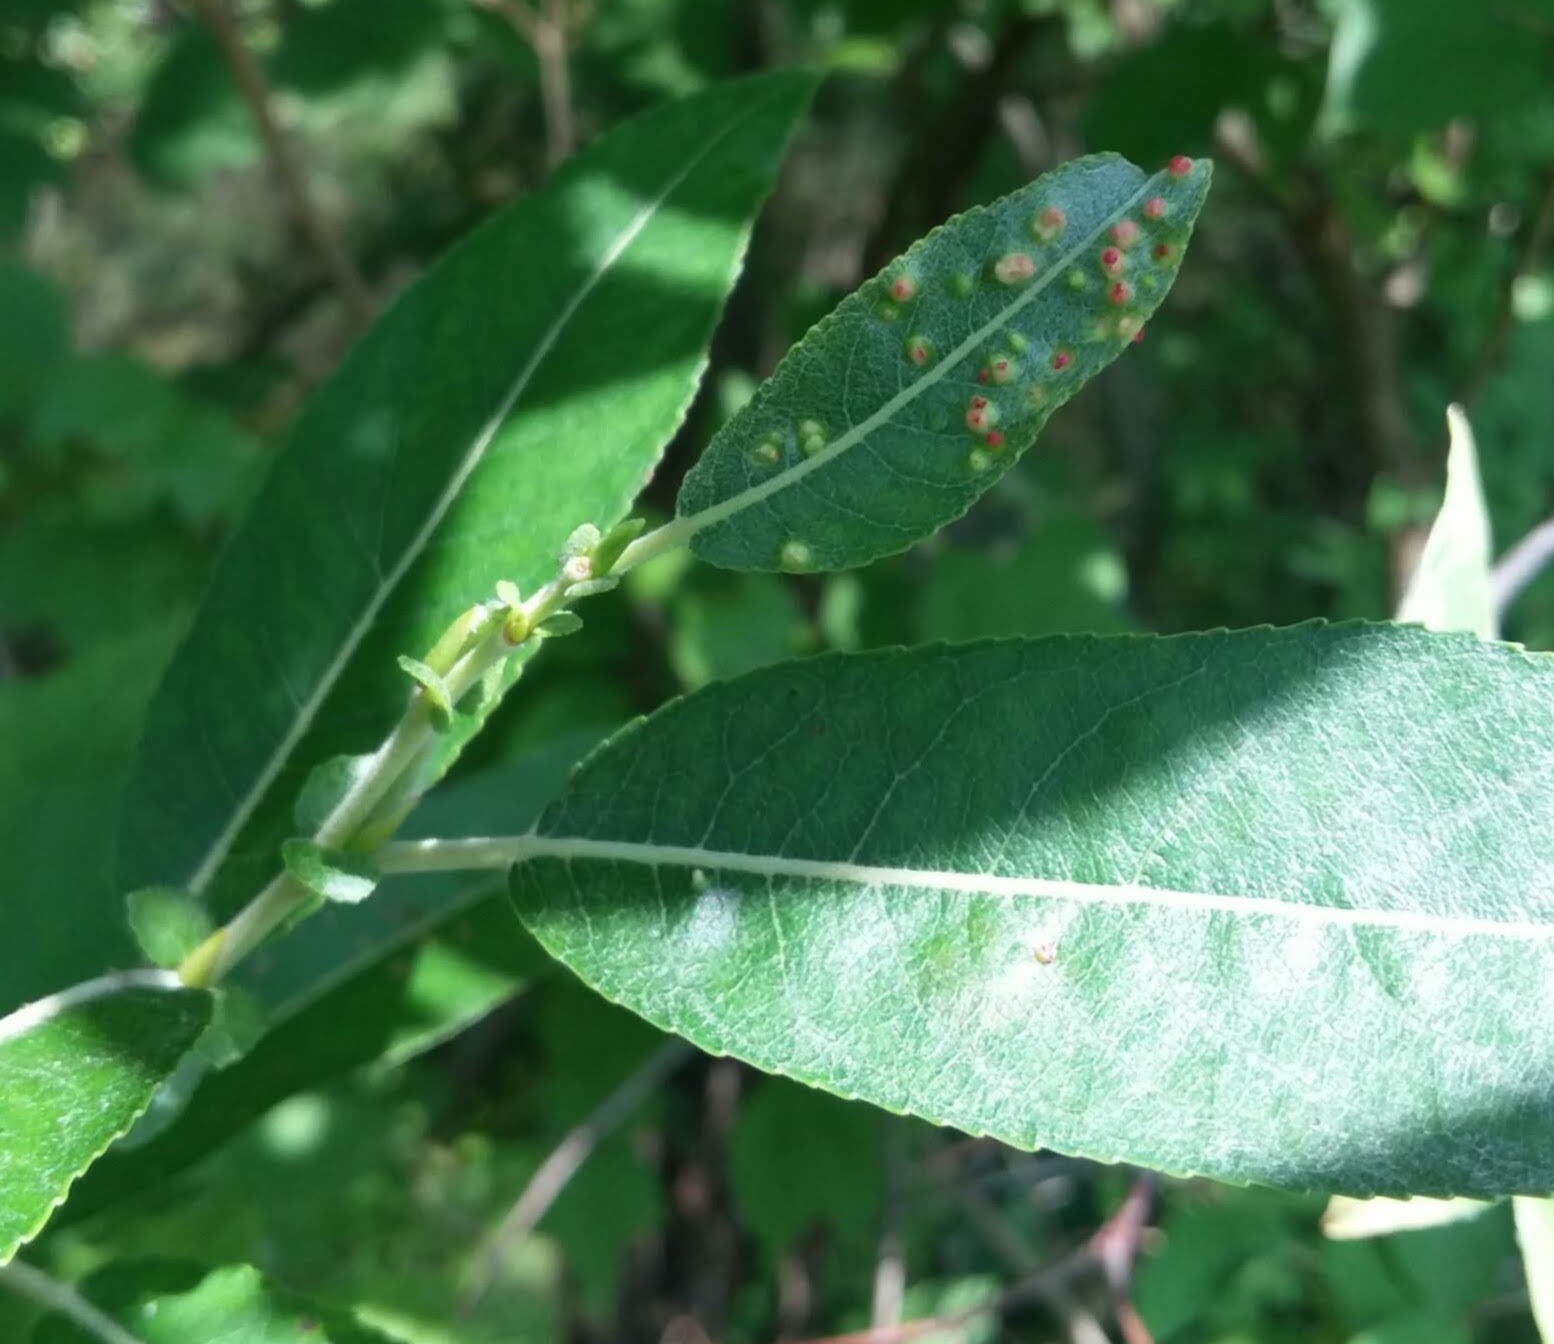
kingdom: Animalia
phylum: Arthropoda
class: Arachnida
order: Trombidiformes
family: Eriophyidae
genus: Aculus
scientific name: Aculus tetanothrix
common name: Willow bead gall mite
